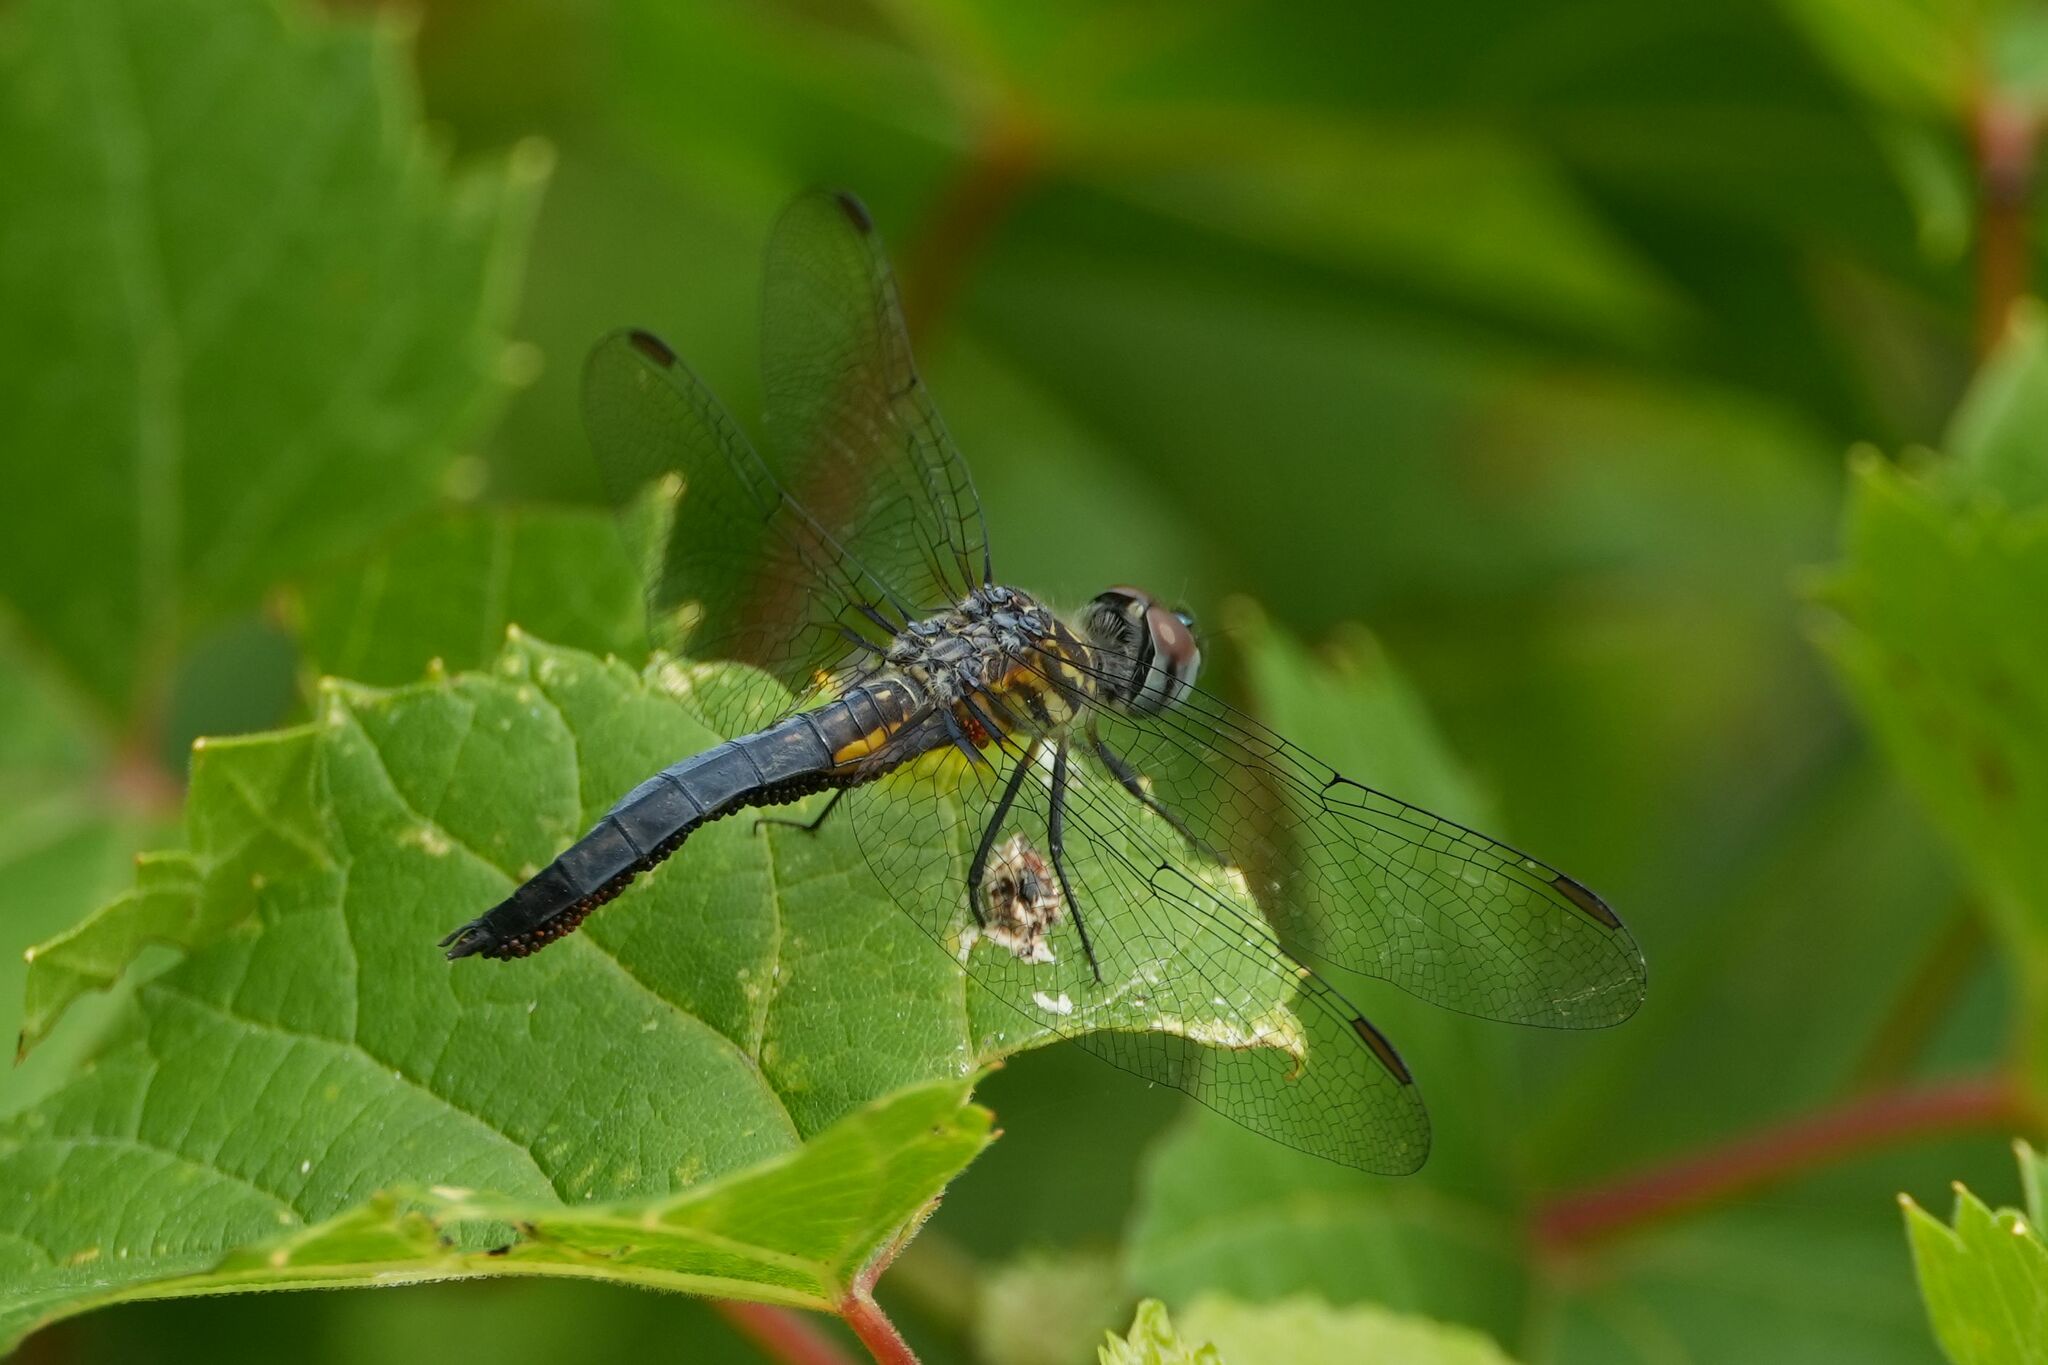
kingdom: Animalia
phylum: Arthropoda
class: Insecta
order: Odonata
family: Libellulidae
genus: Pachydiplax
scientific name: Pachydiplax longipennis
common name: Blue dasher
